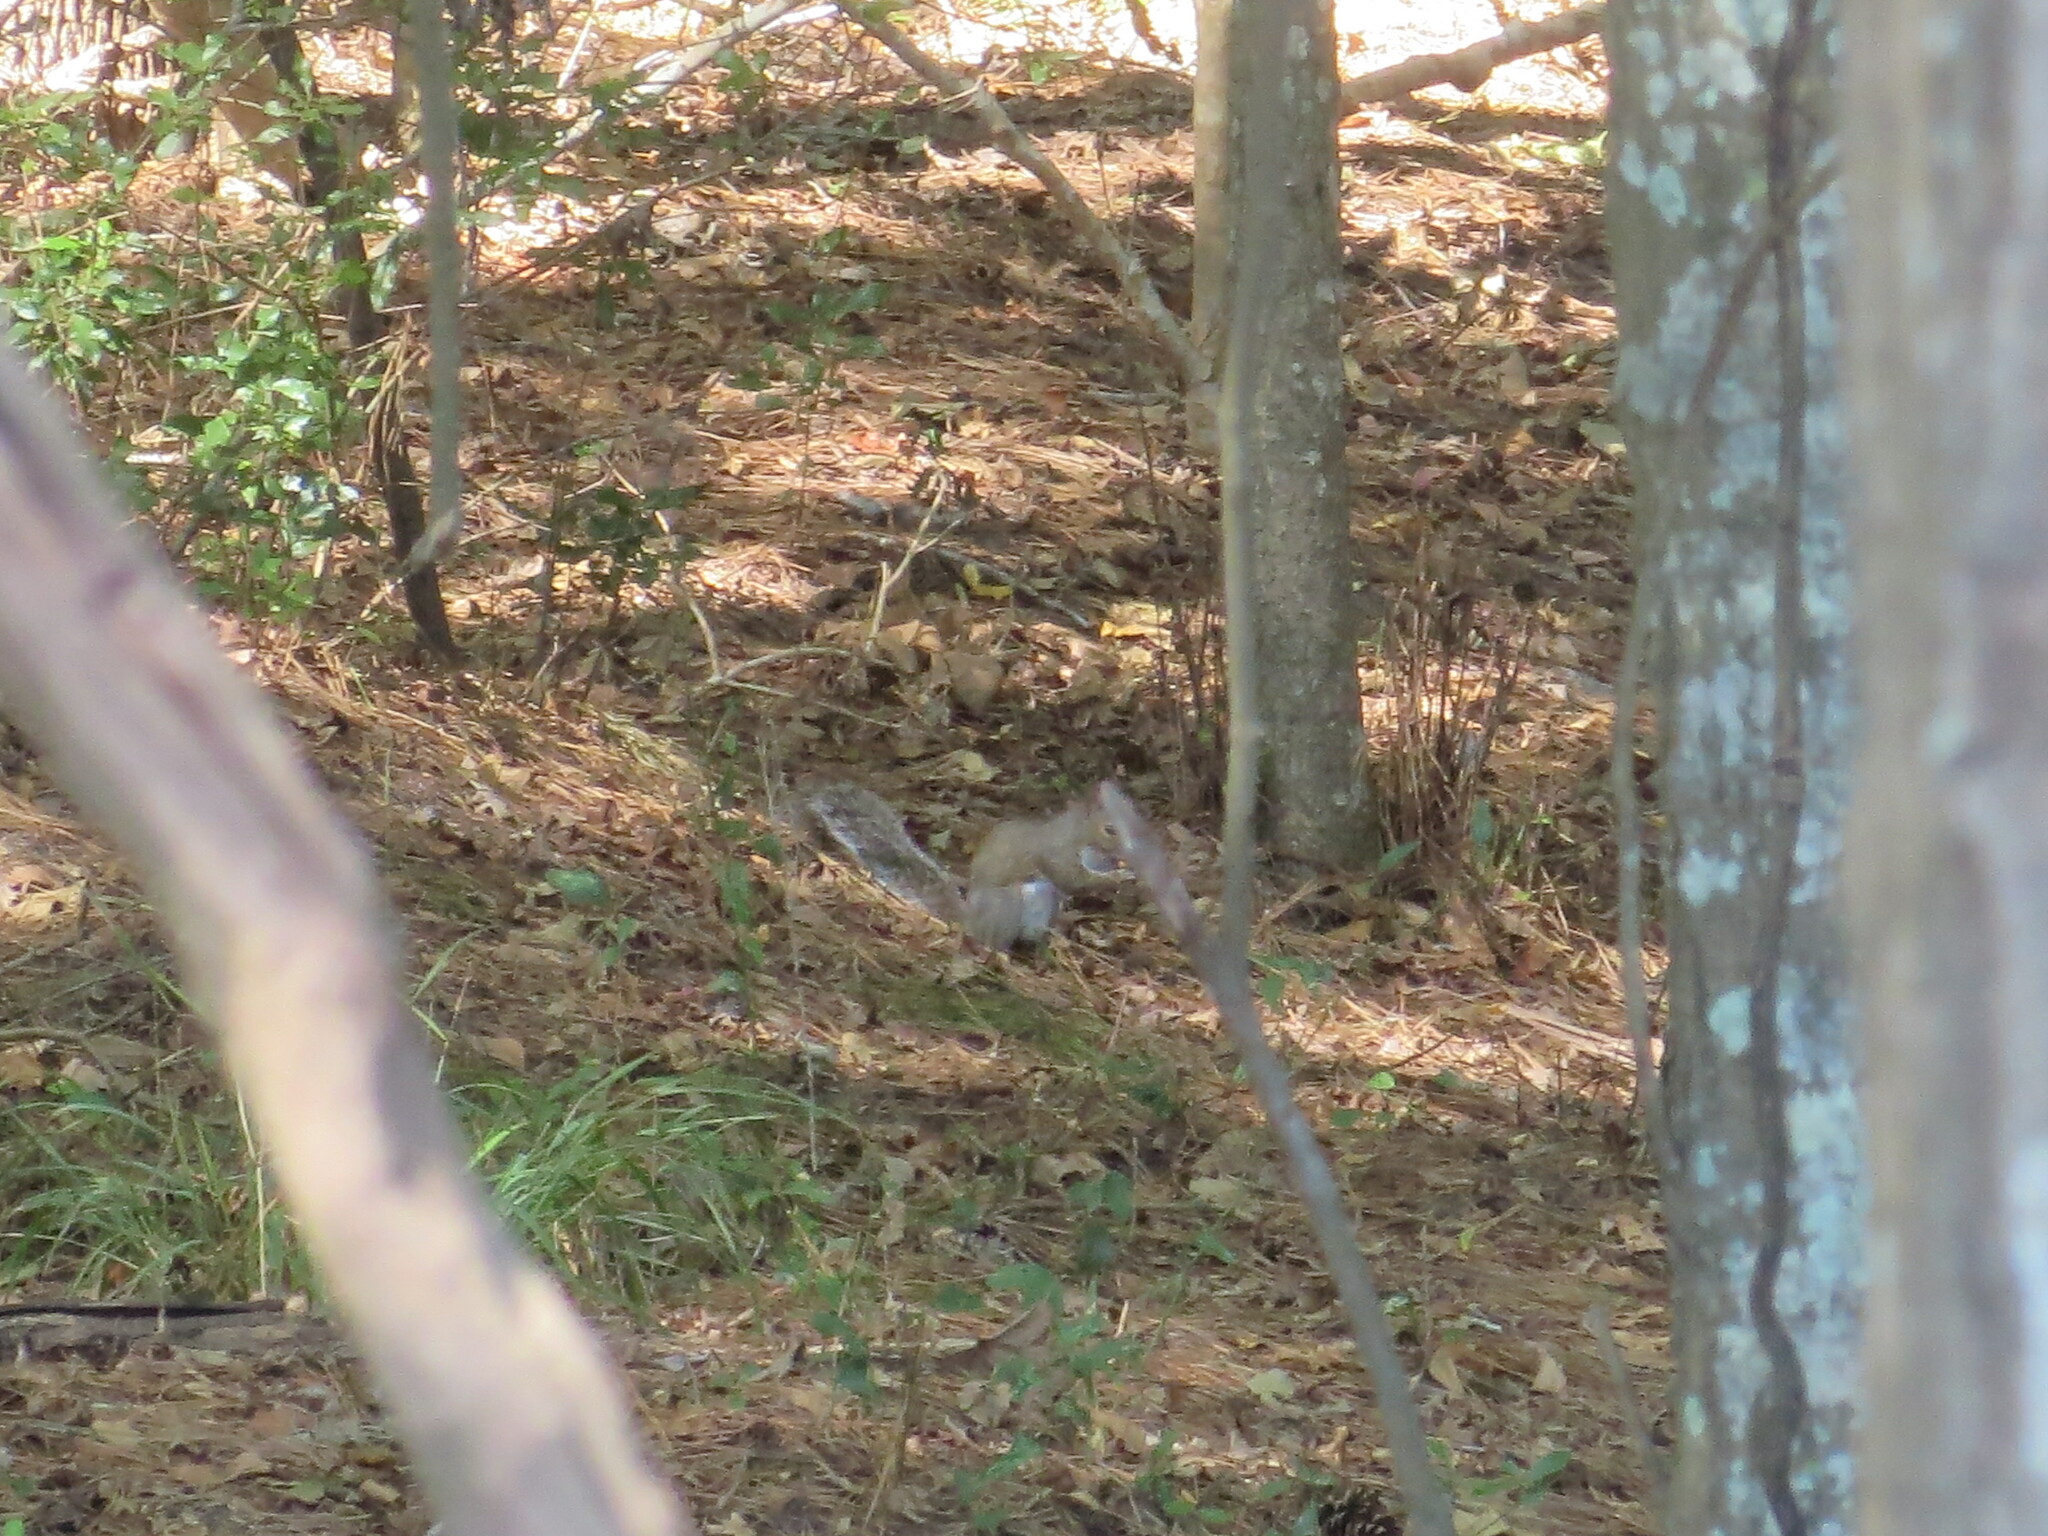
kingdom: Animalia
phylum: Chordata
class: Mammalia
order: Rodentia
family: Sciuridae
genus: Sciurus
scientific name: Sciurus carolinensis
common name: Eastern gray squirrel
